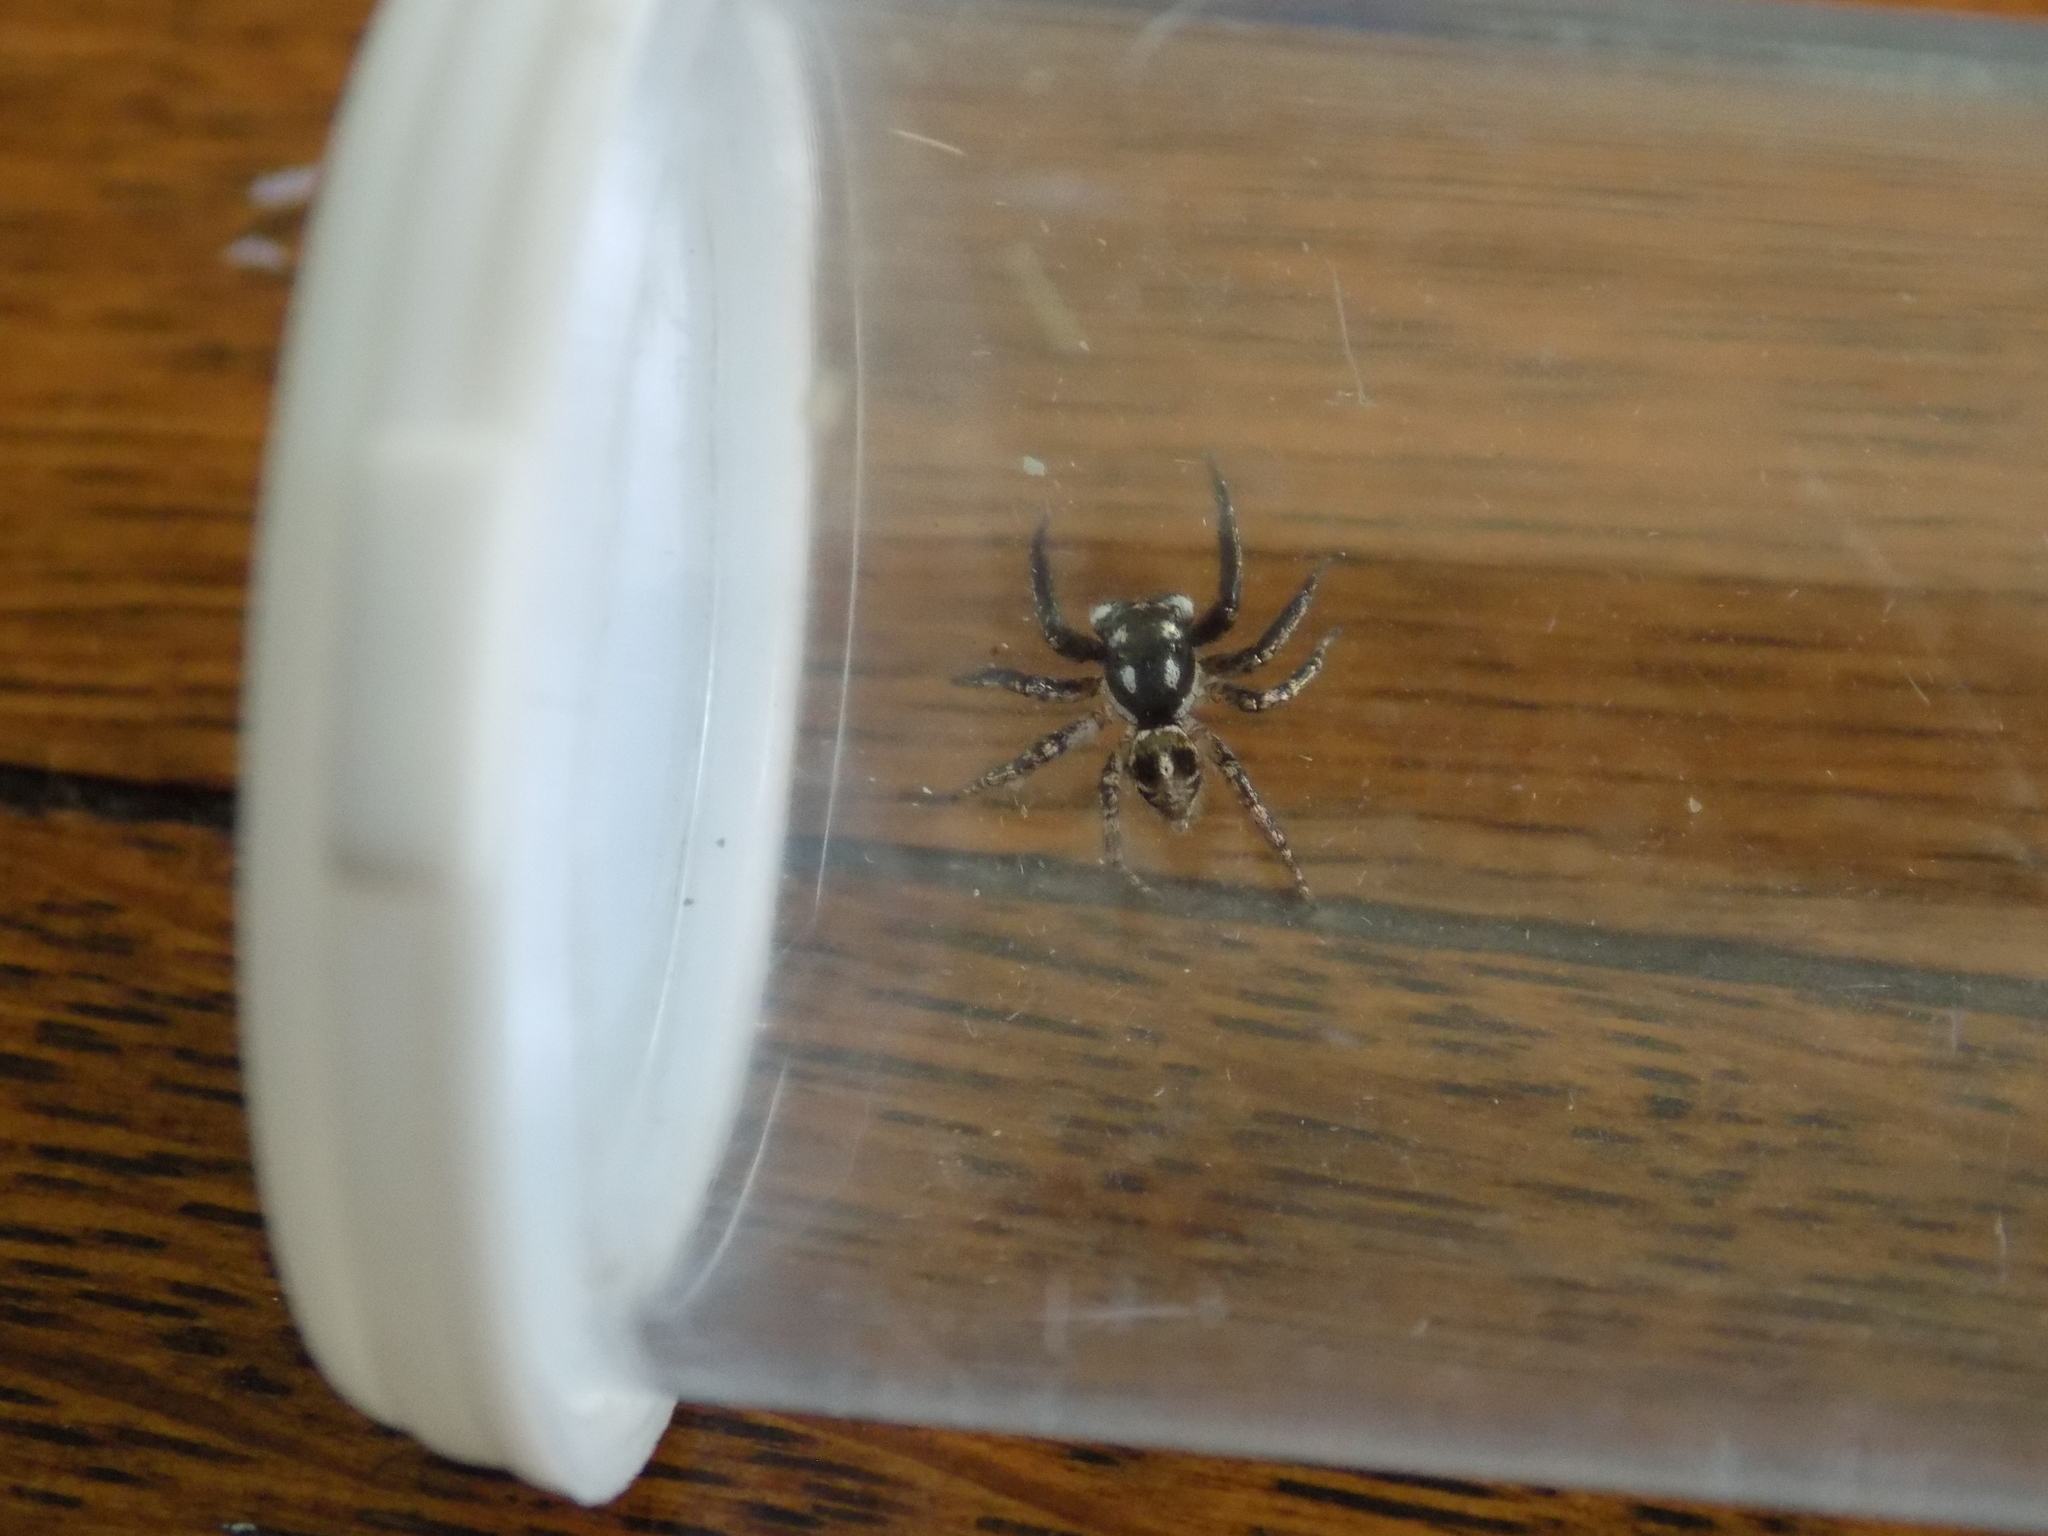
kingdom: Animalia
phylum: Arthropoda
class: Arachnida
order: Araneae
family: Salticidae
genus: Anasaitis
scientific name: Anasaitis canosa
